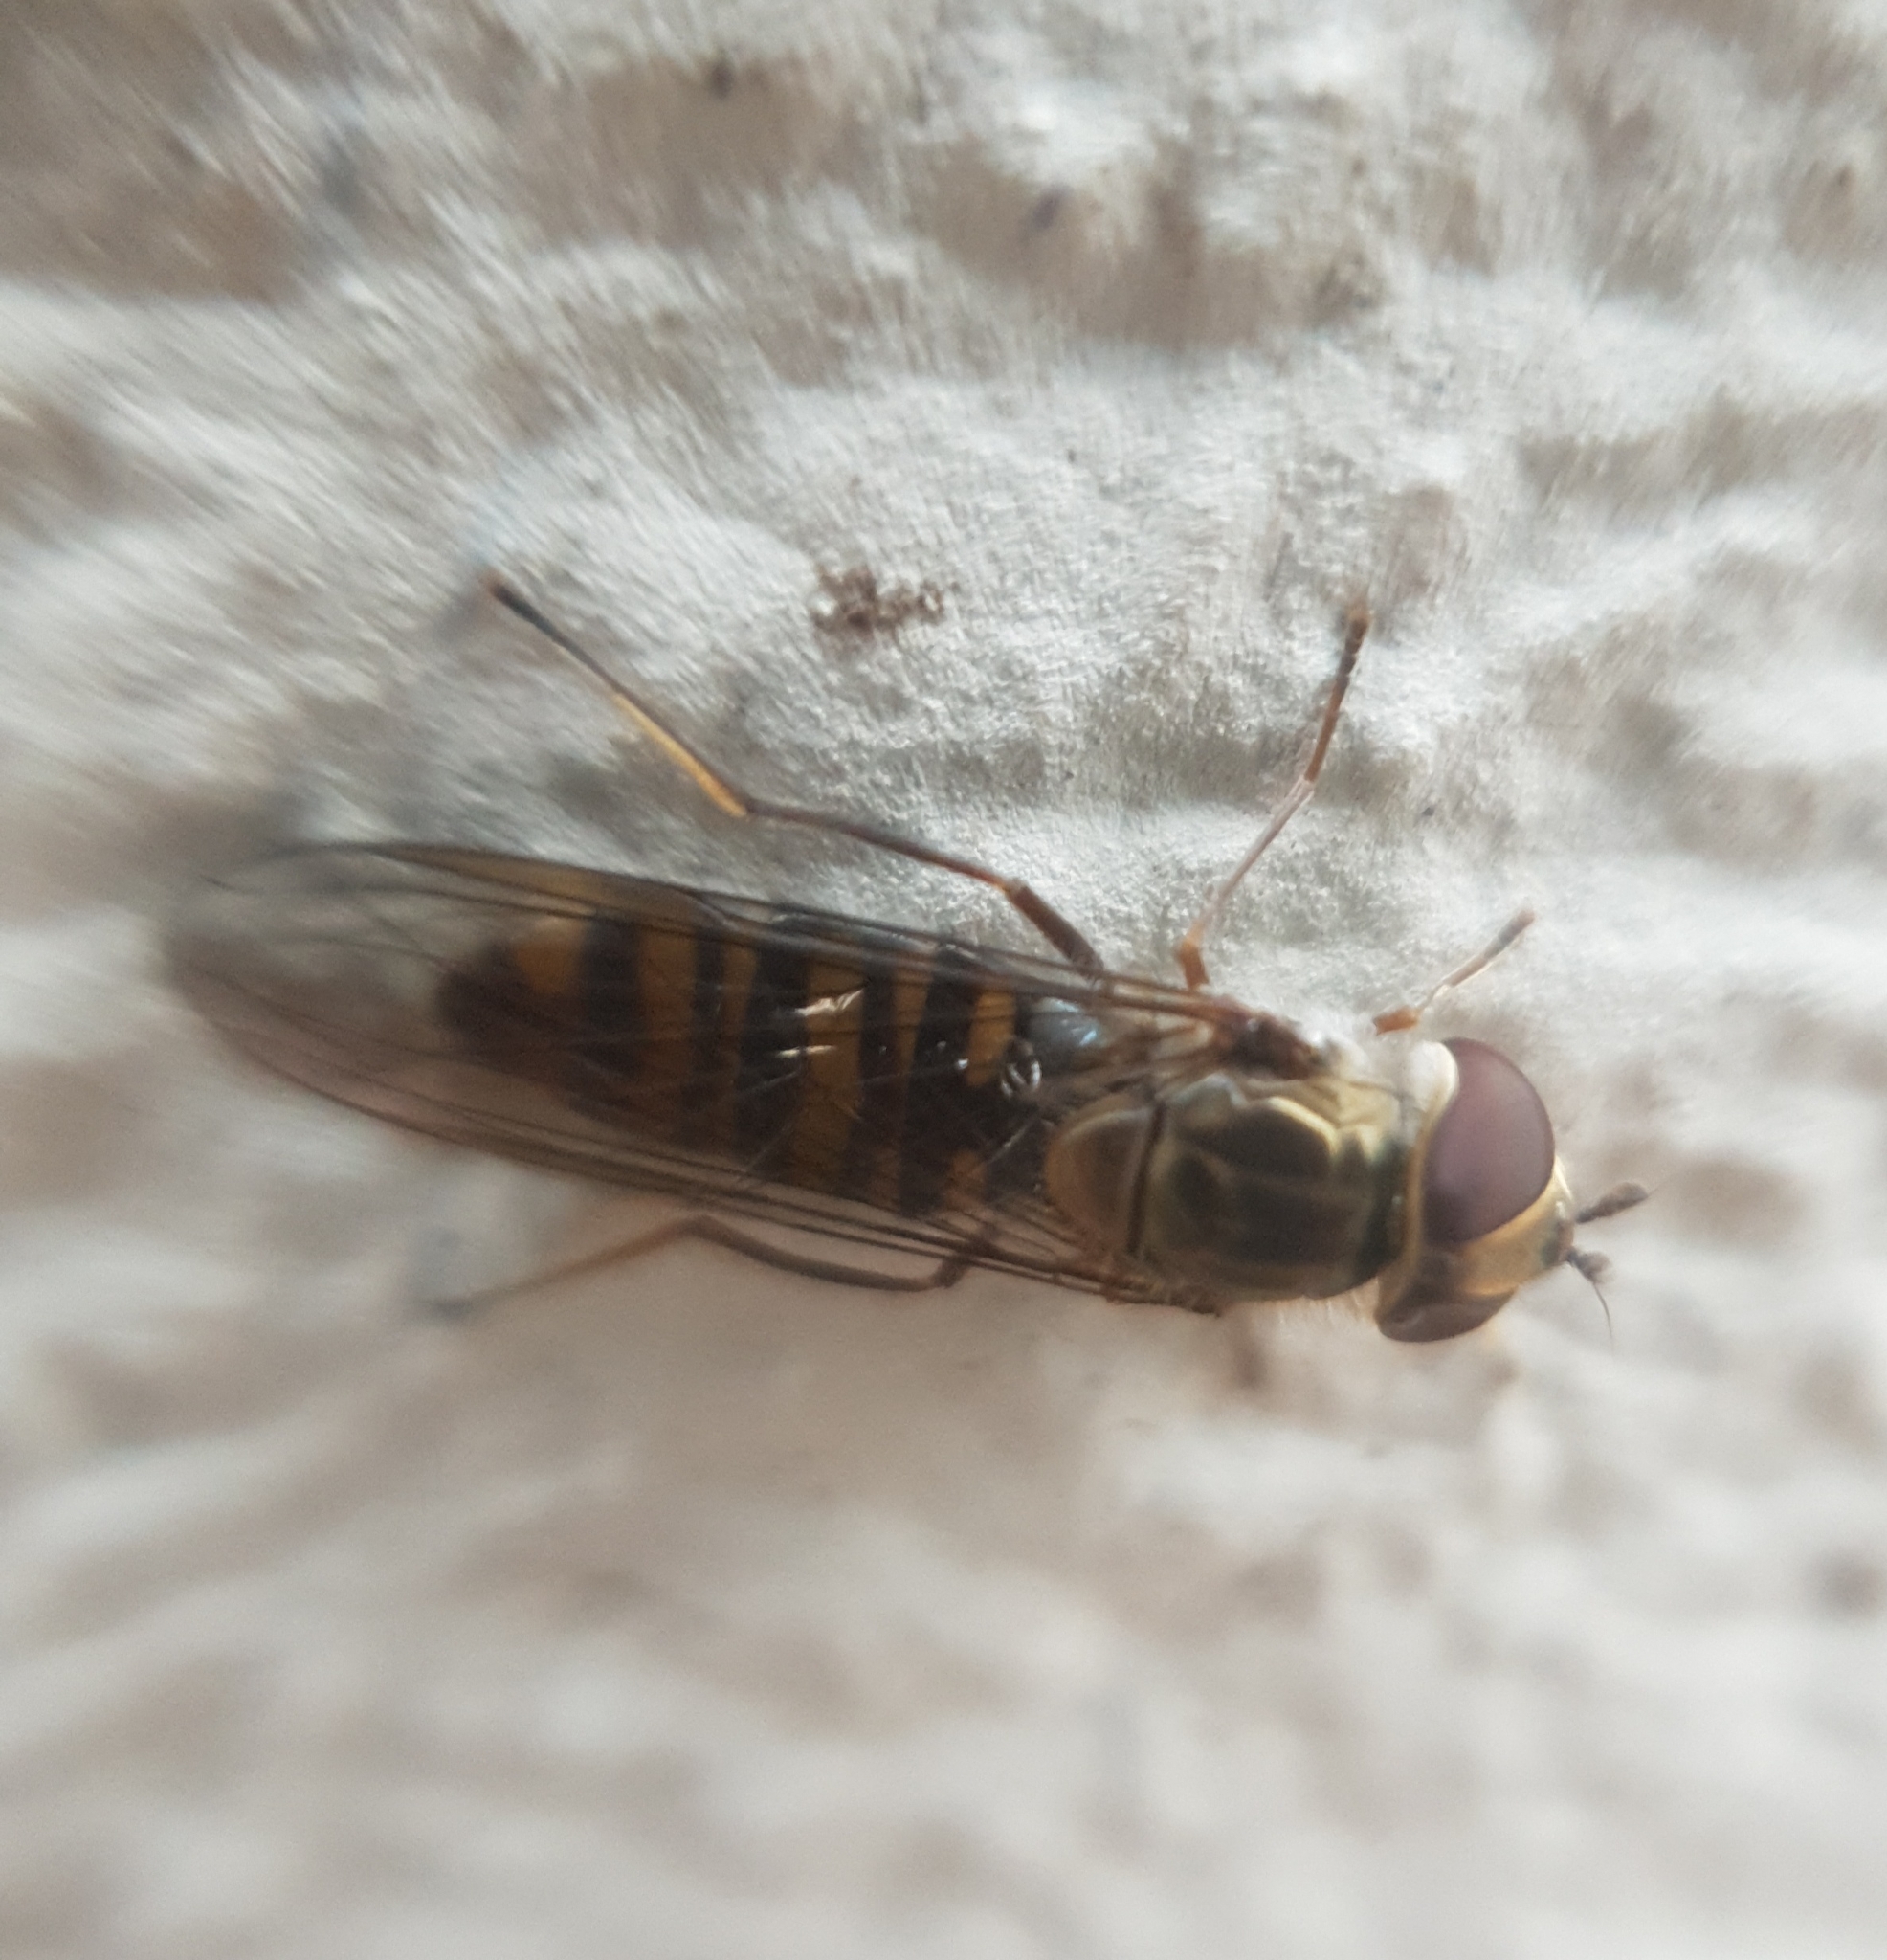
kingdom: Animalia
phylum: Arthropoda
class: Insecta
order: Diptera
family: Syrphidae
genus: Episyrphus
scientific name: Episyrphus balteatus
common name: Marmalade hoverfly
